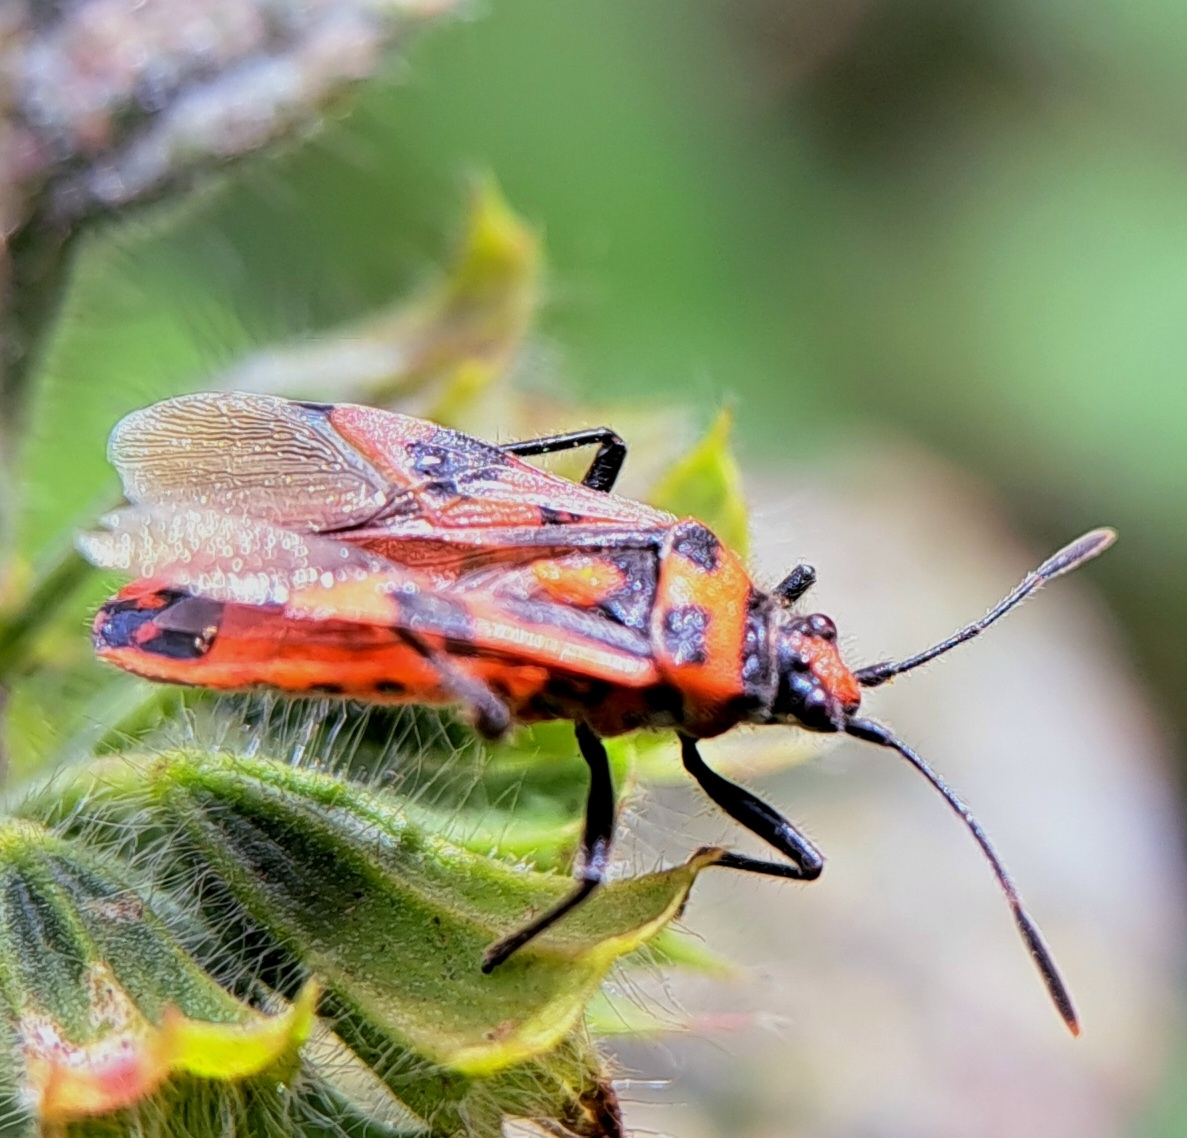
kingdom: Animalia
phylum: Arthropoda
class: Insecta
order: Hemiptera
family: Rhopalidae
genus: Corizus
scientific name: Corizus hyoscyami
